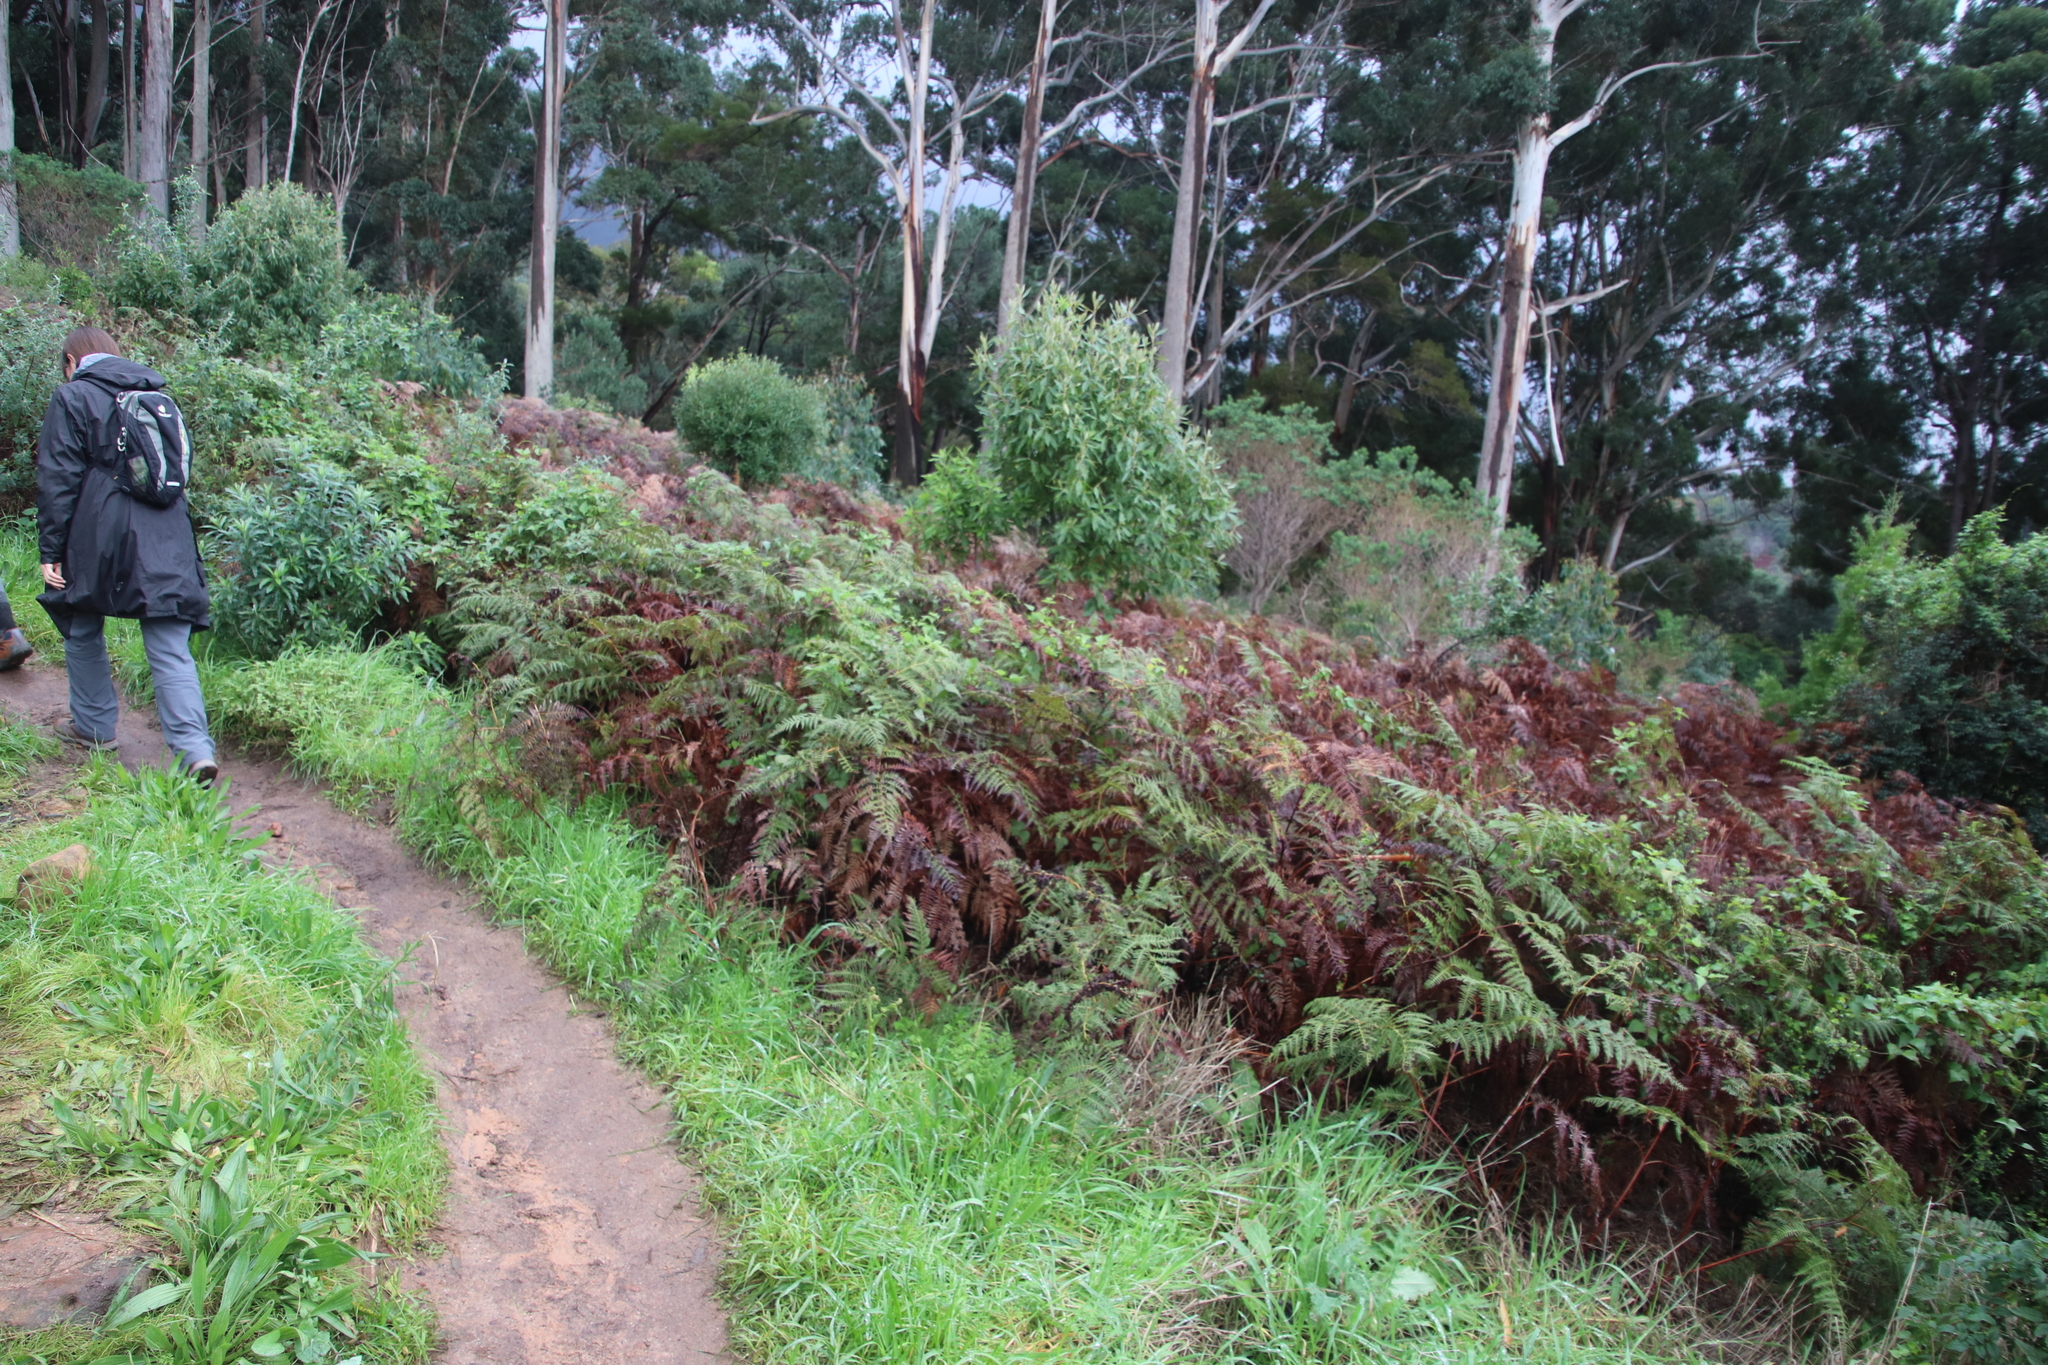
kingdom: Plantae
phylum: Tracheophyta
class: Polypodiopsida
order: Polypodiales
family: Dennstaedtiaceae
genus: Pteridium
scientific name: Pteridium aquilinum
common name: Bracken
